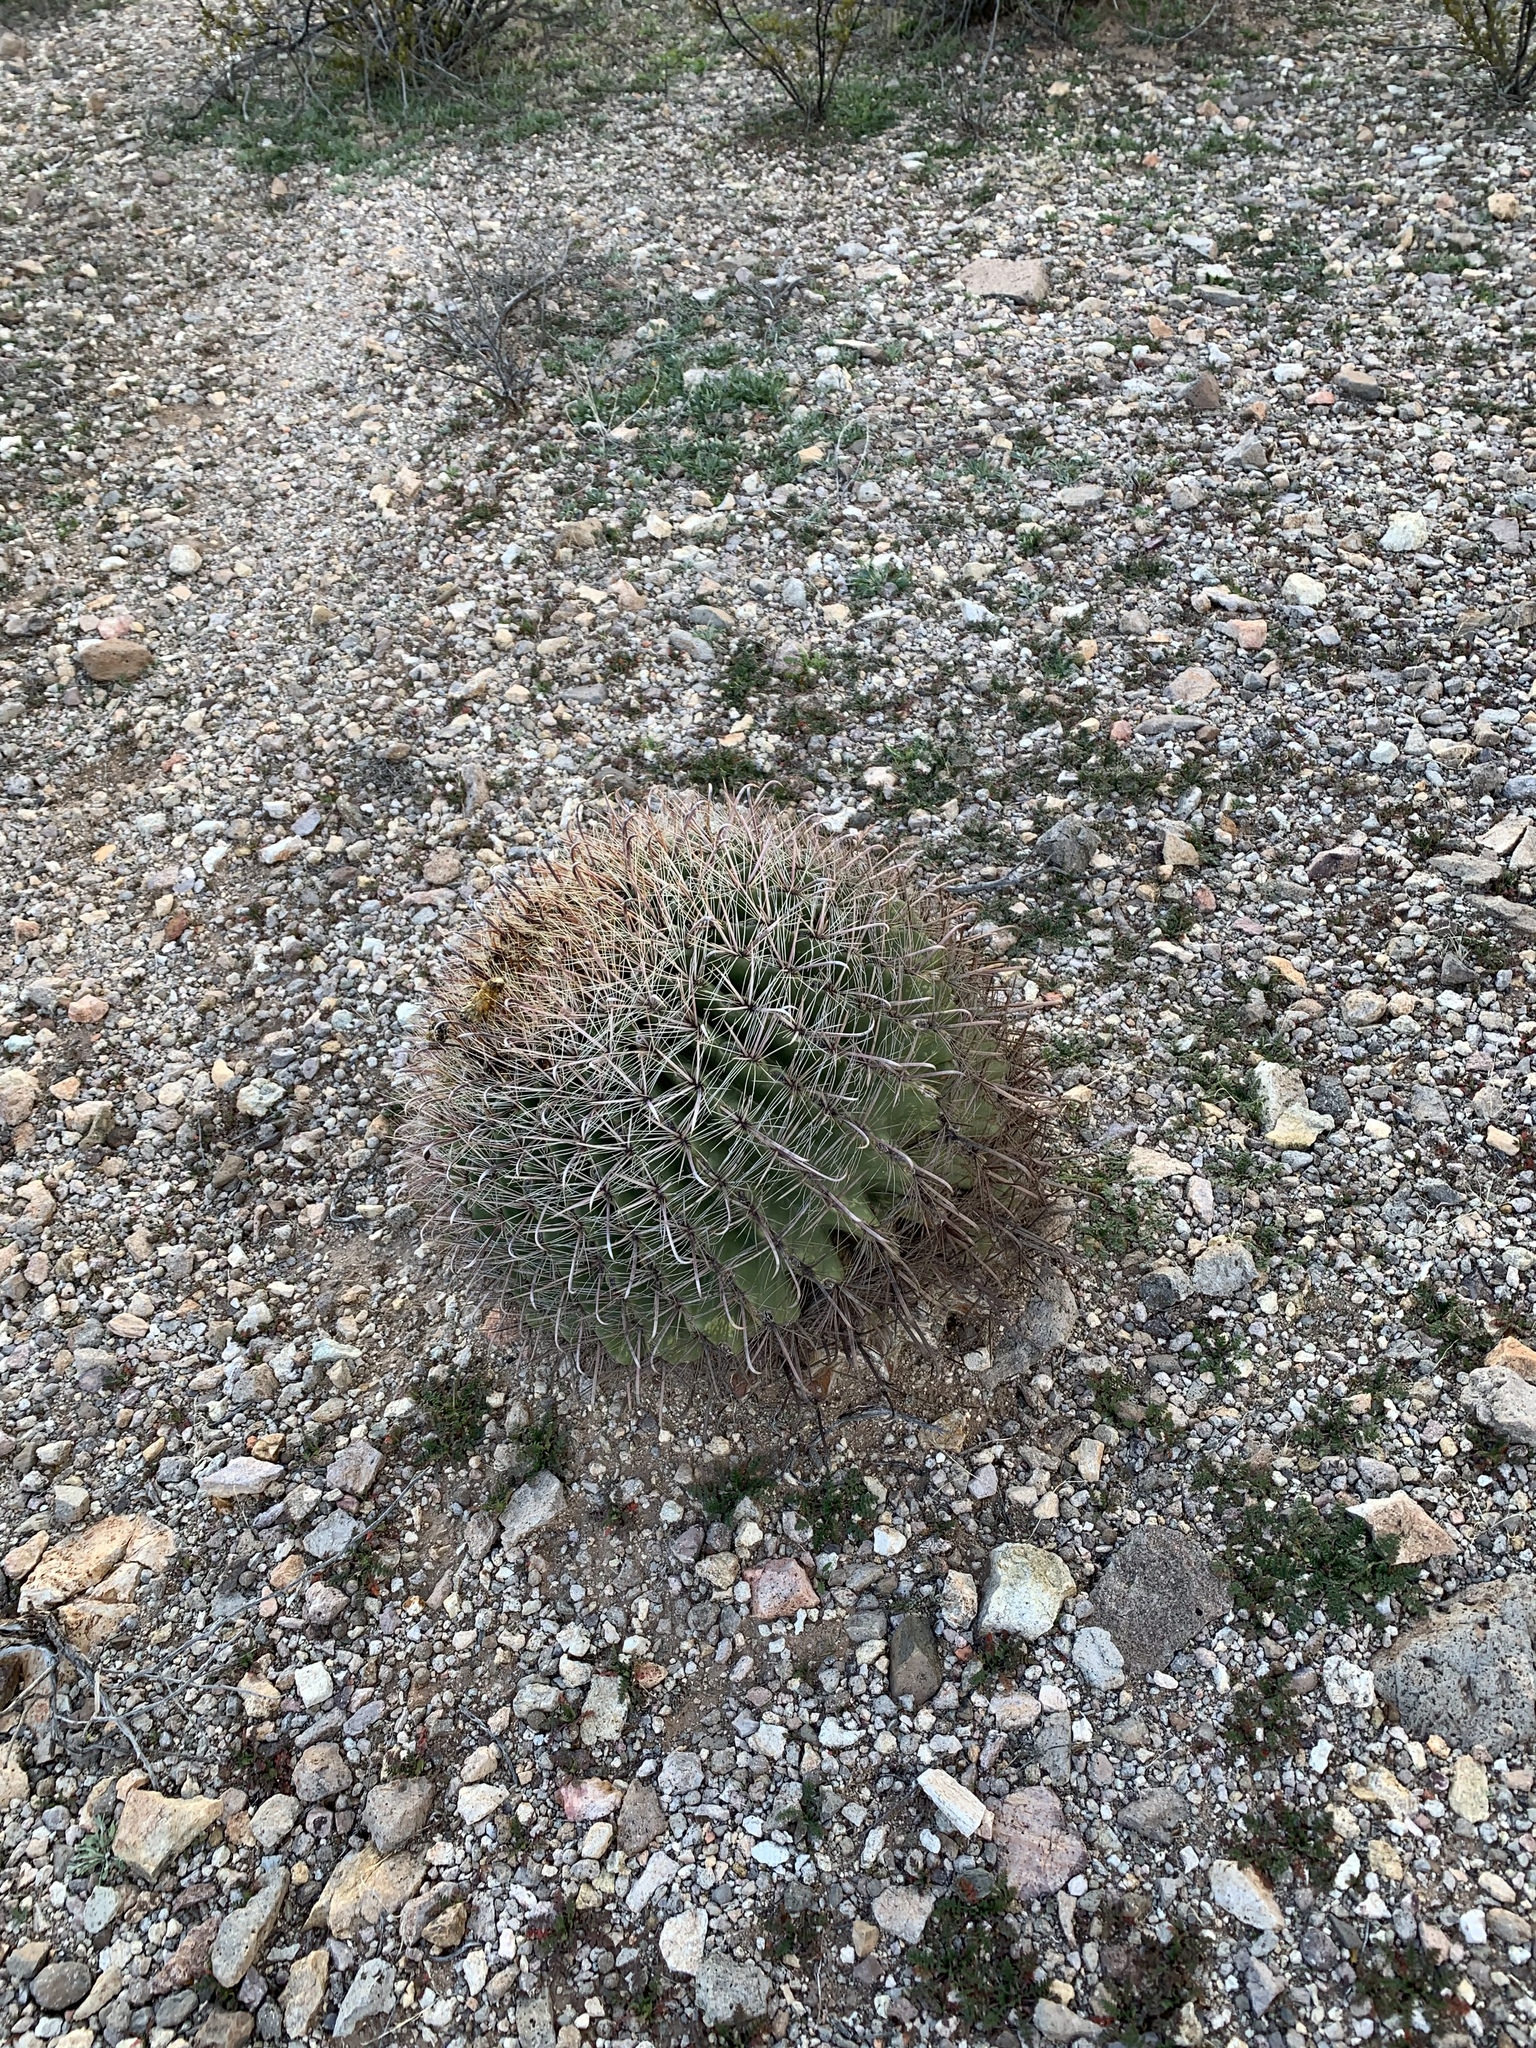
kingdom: Plantae
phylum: Tracheophyta
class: Magnoliopsida
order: Caryophyllales
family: Cactaceae
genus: Ferocactus
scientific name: Ferocactus wislizeni
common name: Candy barrel cactus
